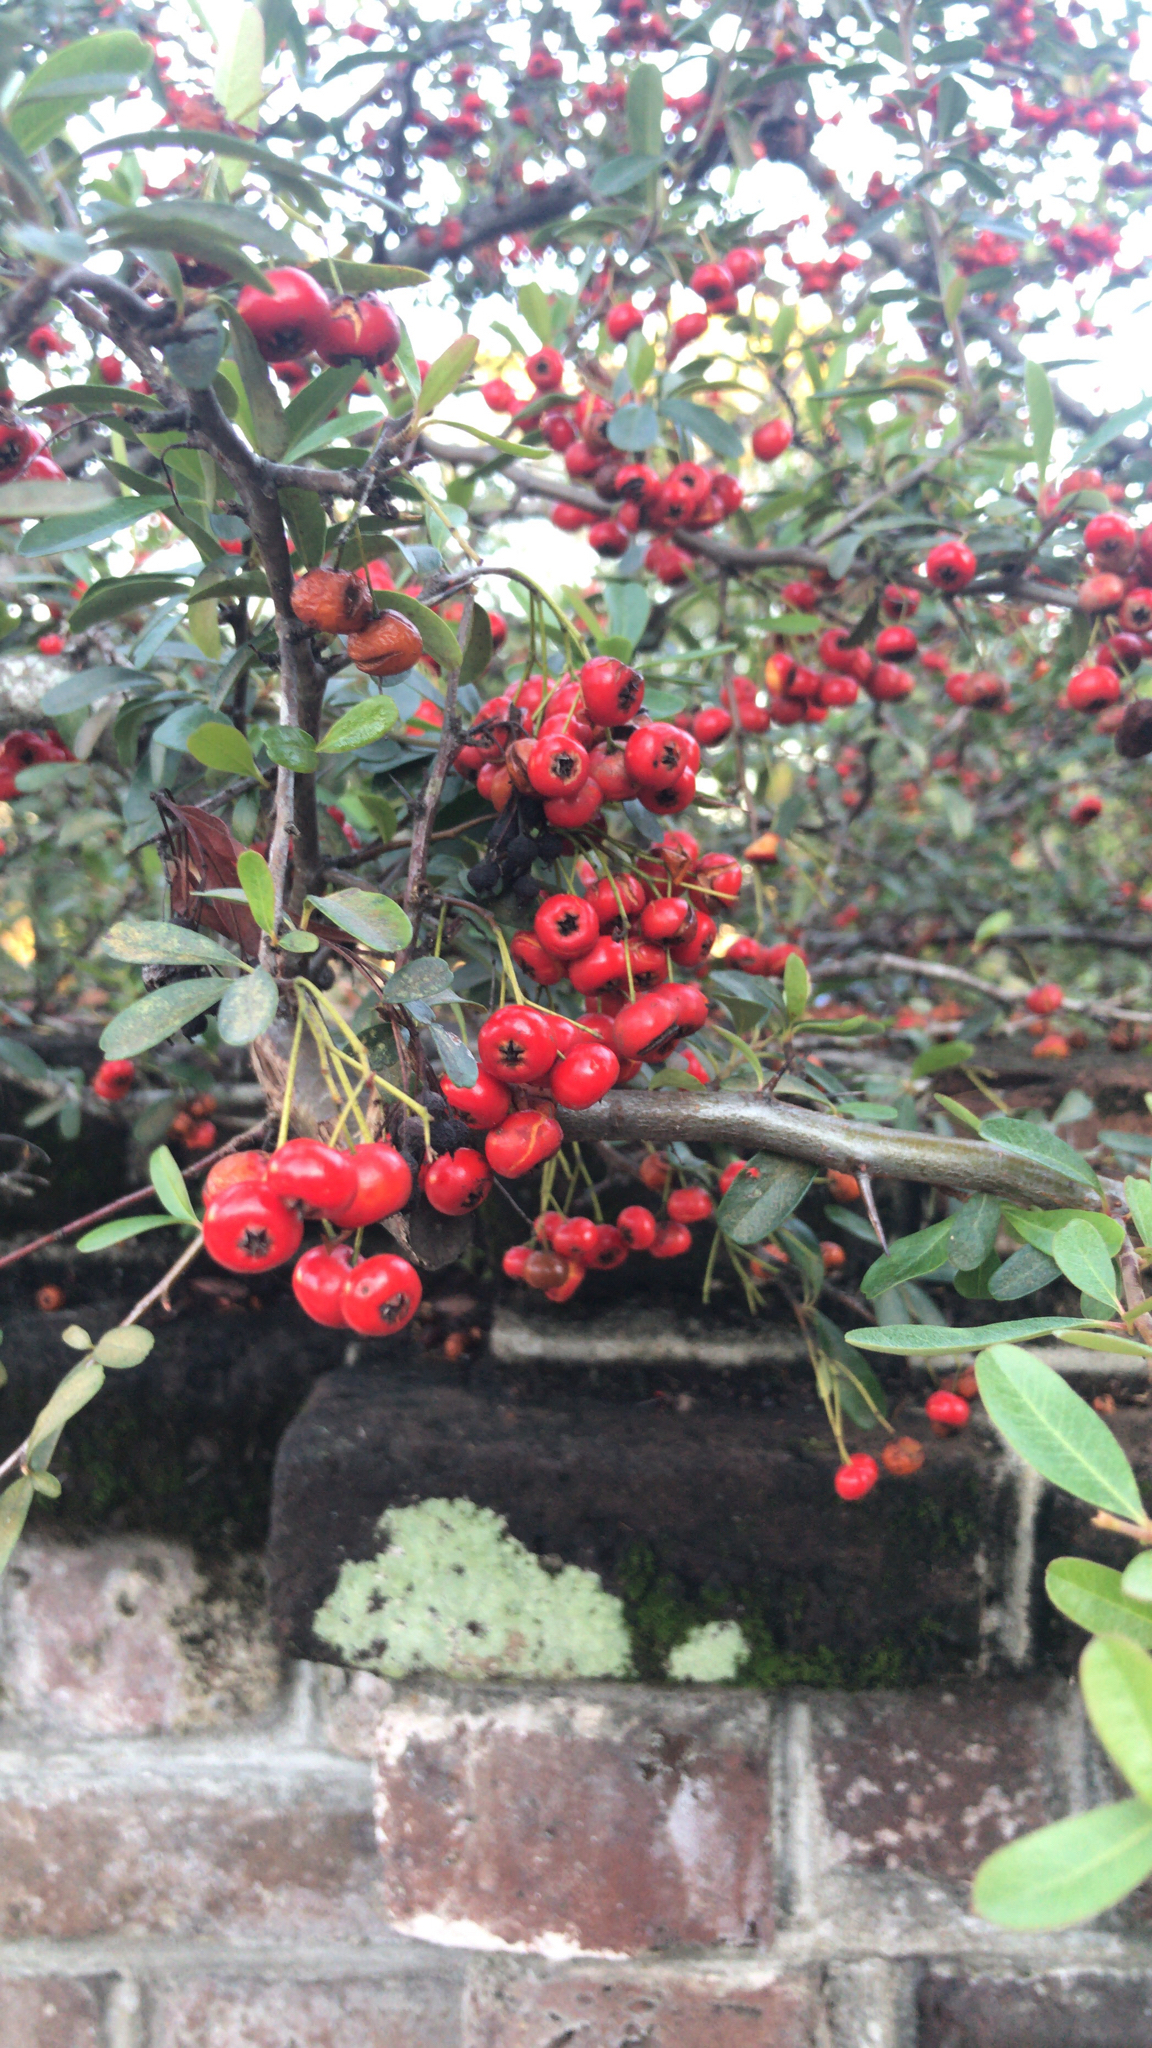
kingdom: Plantae
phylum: Tracheophyta
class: Magnoliopsida
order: Rosales
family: Rosaceae
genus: Pyracantha
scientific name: Pyracantha coccinea
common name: Firethorn
